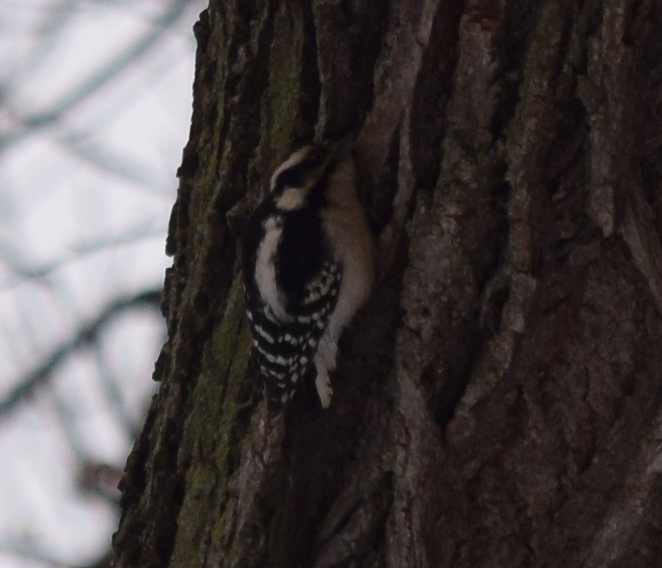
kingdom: Animalia
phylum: Chordata
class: Aves
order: Piciformes
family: Picidae
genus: Dryobates
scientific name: Dryobates pubescens
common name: Downy woodpecker
